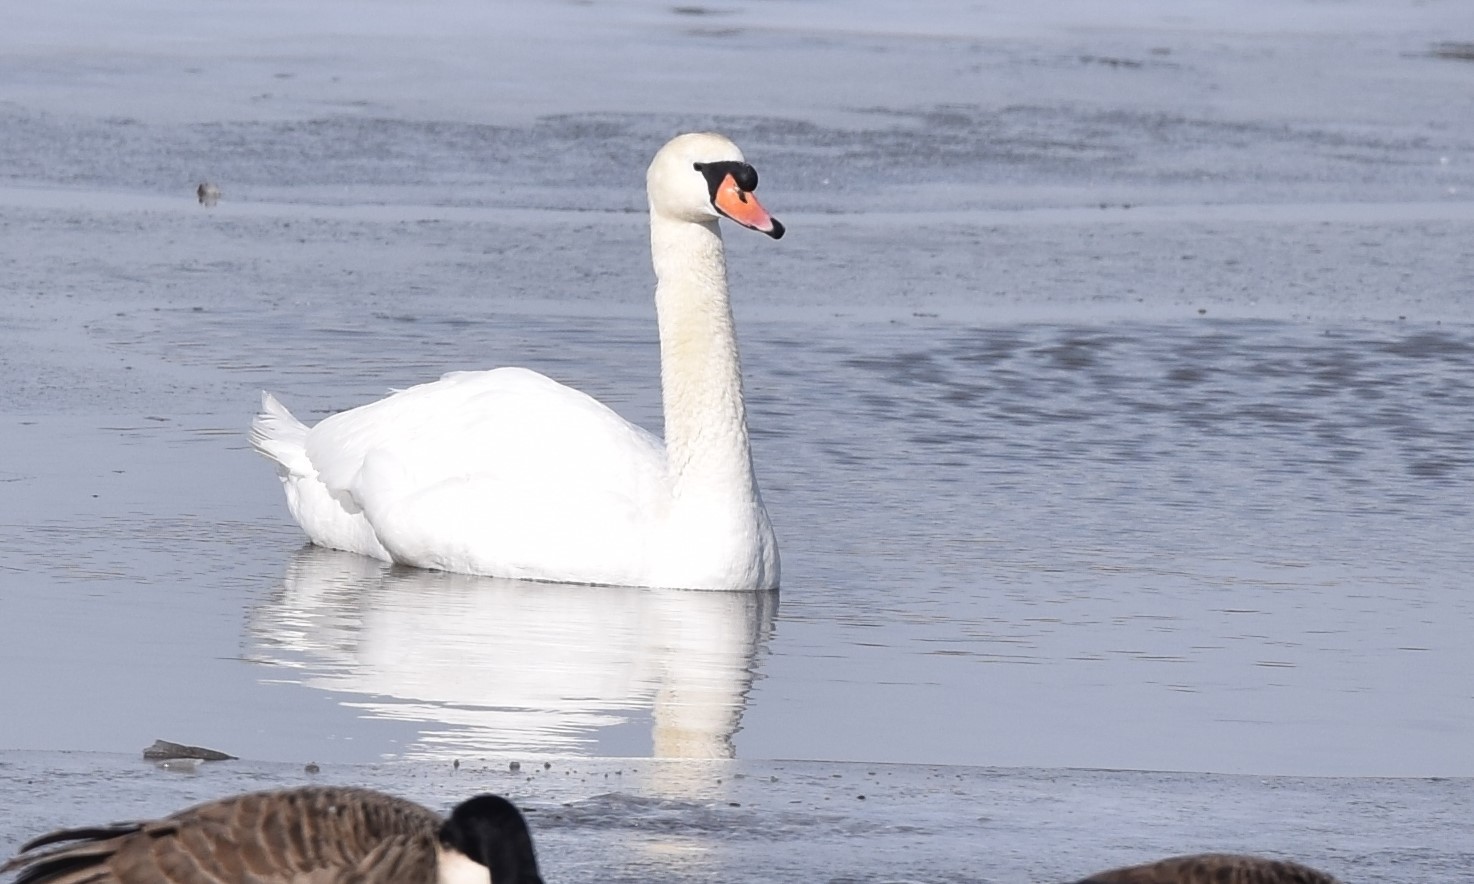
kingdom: Animalia
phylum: Chordata
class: Aves
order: Anseriformes
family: Anatidae
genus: Cygnus
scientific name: Cygnus olor
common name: Mute swan
